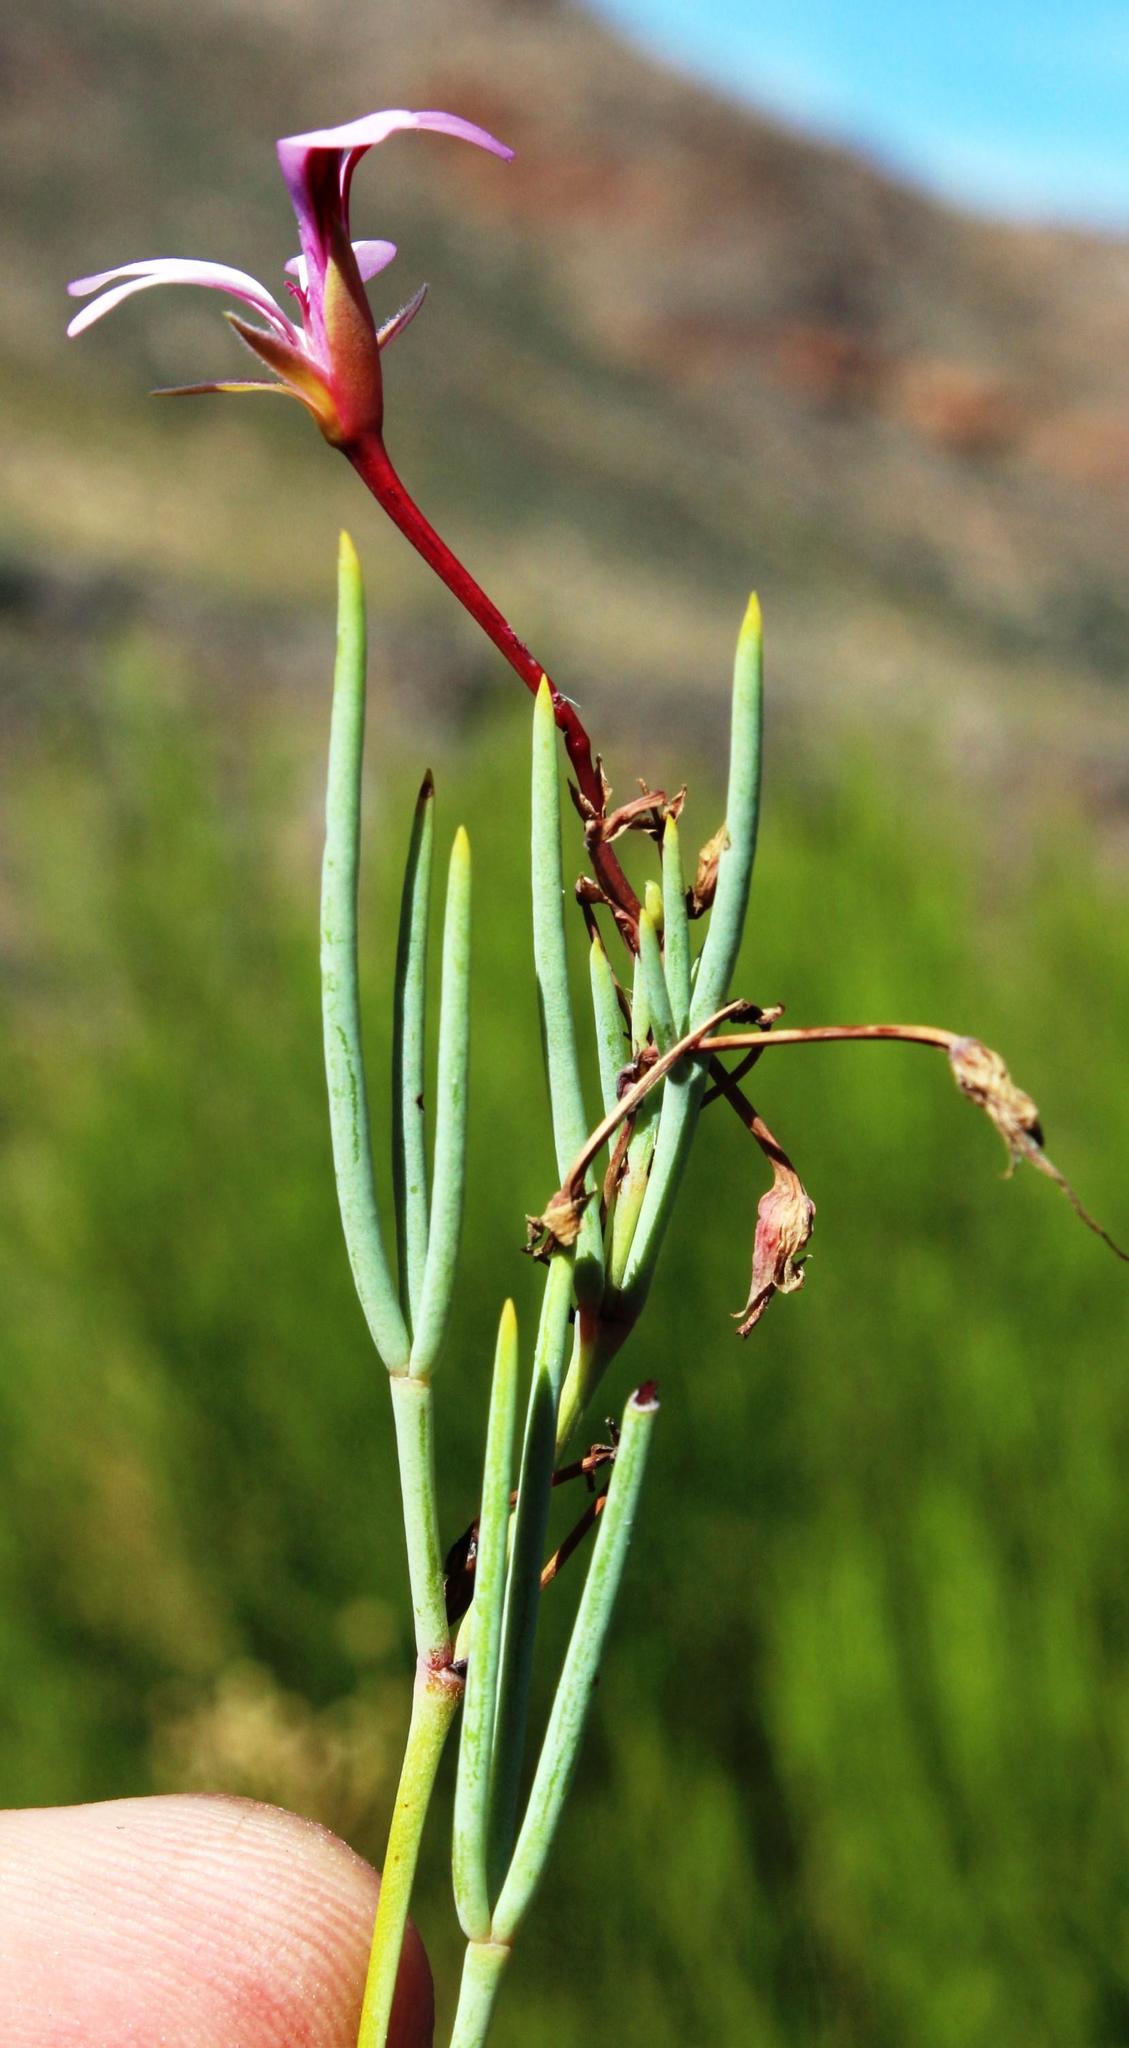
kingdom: Plantae
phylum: Tracheophyta
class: Magnoliopsida
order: Geraniales
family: Geraniaceae
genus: Pelargonium
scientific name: Pelargonium laevigatum
